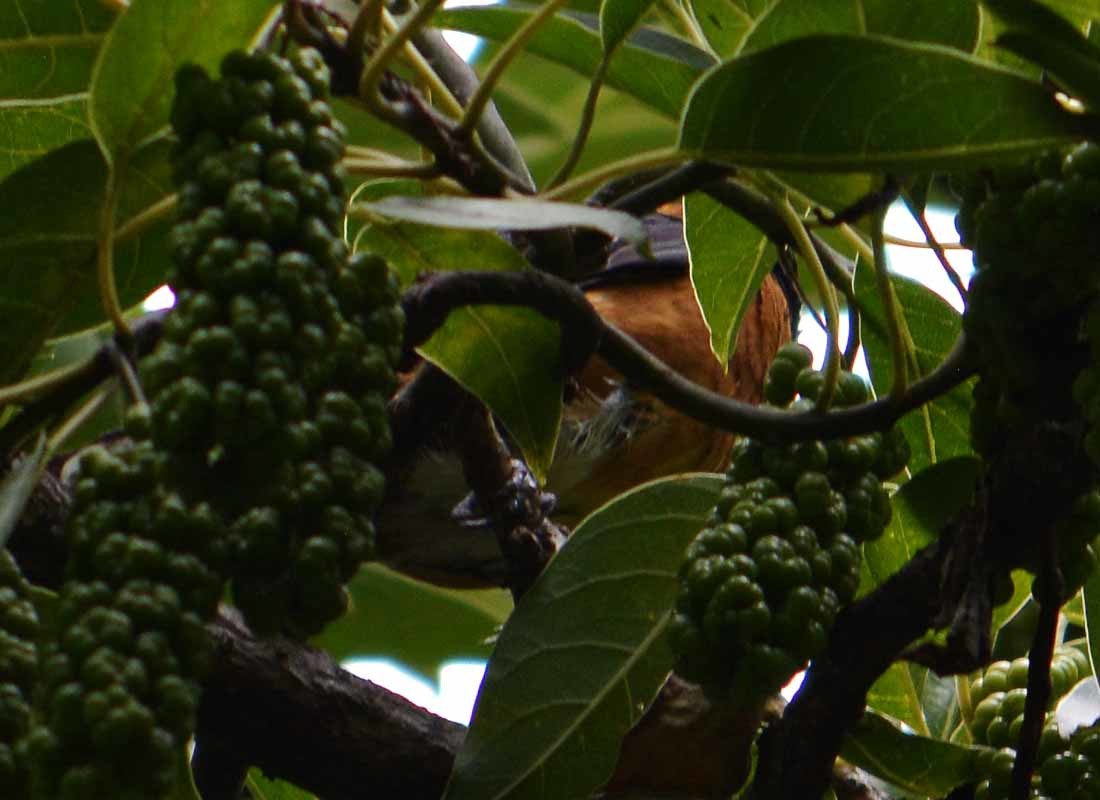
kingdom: Animalia
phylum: Chordata
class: Aves
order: Passeriformes
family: Cardinalidae
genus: Pheucticus
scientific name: Pheucticus melanocephalus
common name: Black-headed grosbeak
